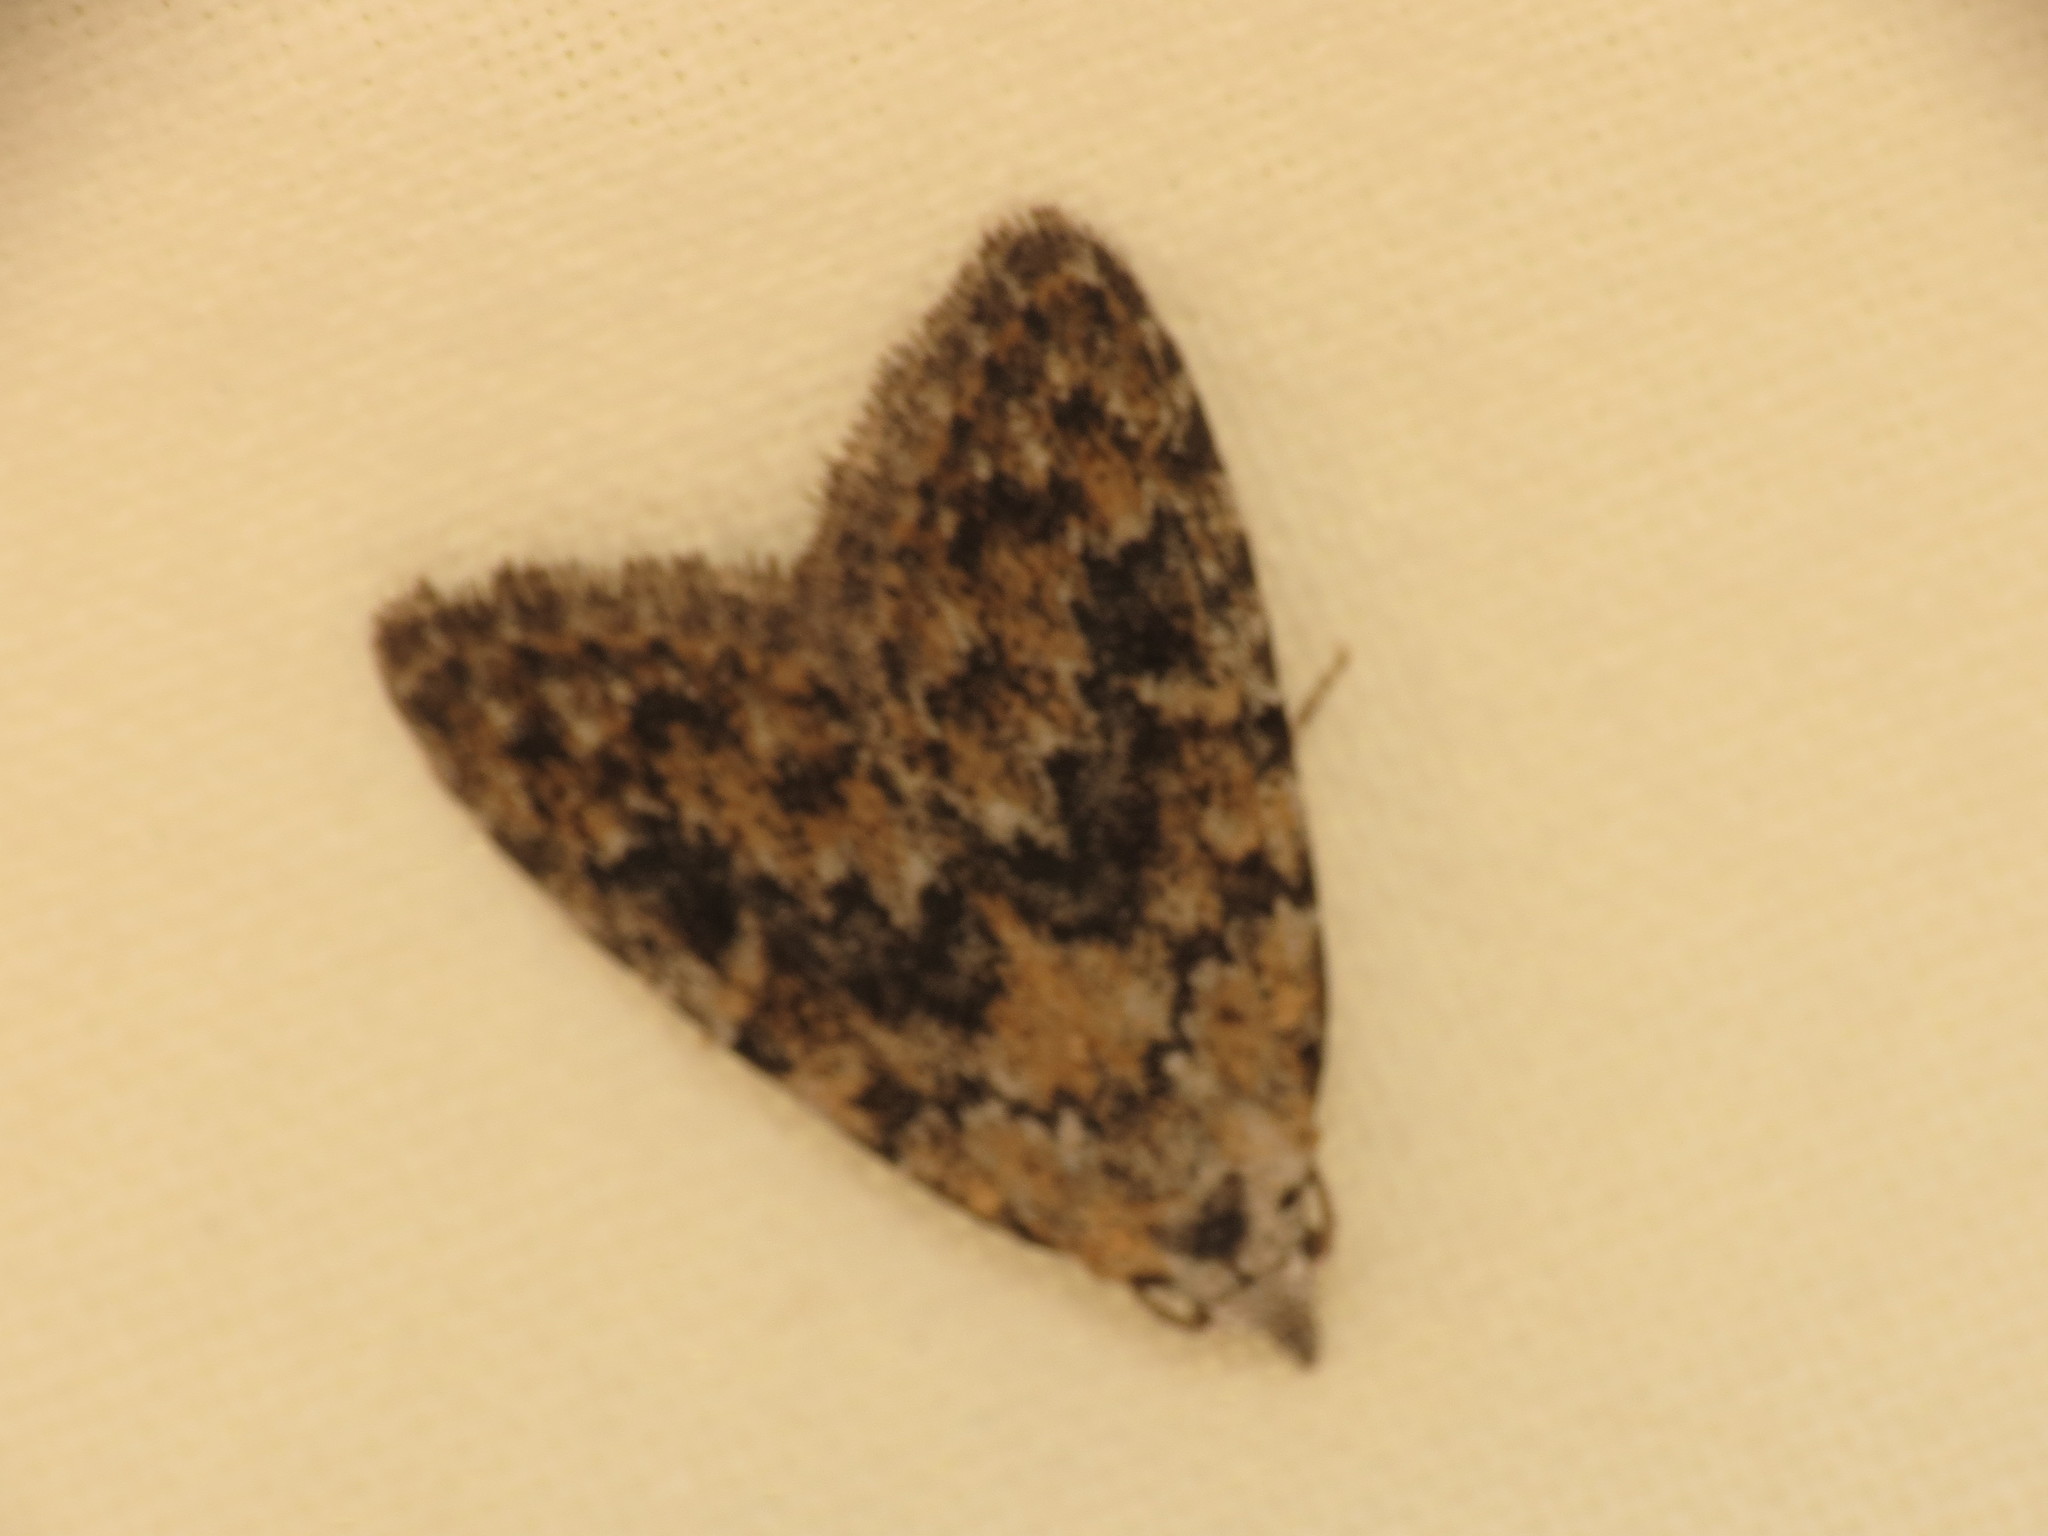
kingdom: Animalia
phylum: Arthropoda
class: Insecta
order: Lepidoptera
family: Nolidae
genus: Nola
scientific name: Nola pothina
